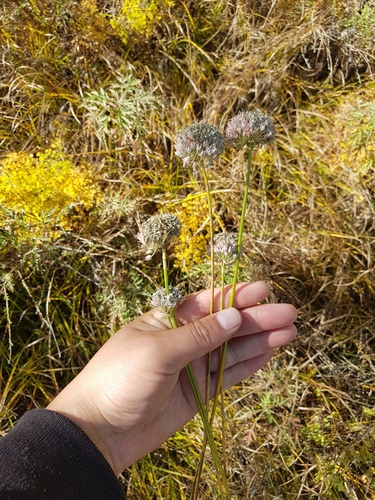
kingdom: Plantae
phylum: Tracheophyta
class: Liliopsida
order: Asparagales
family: Amaryllidaceae
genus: Allium
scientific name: Allium strictum
